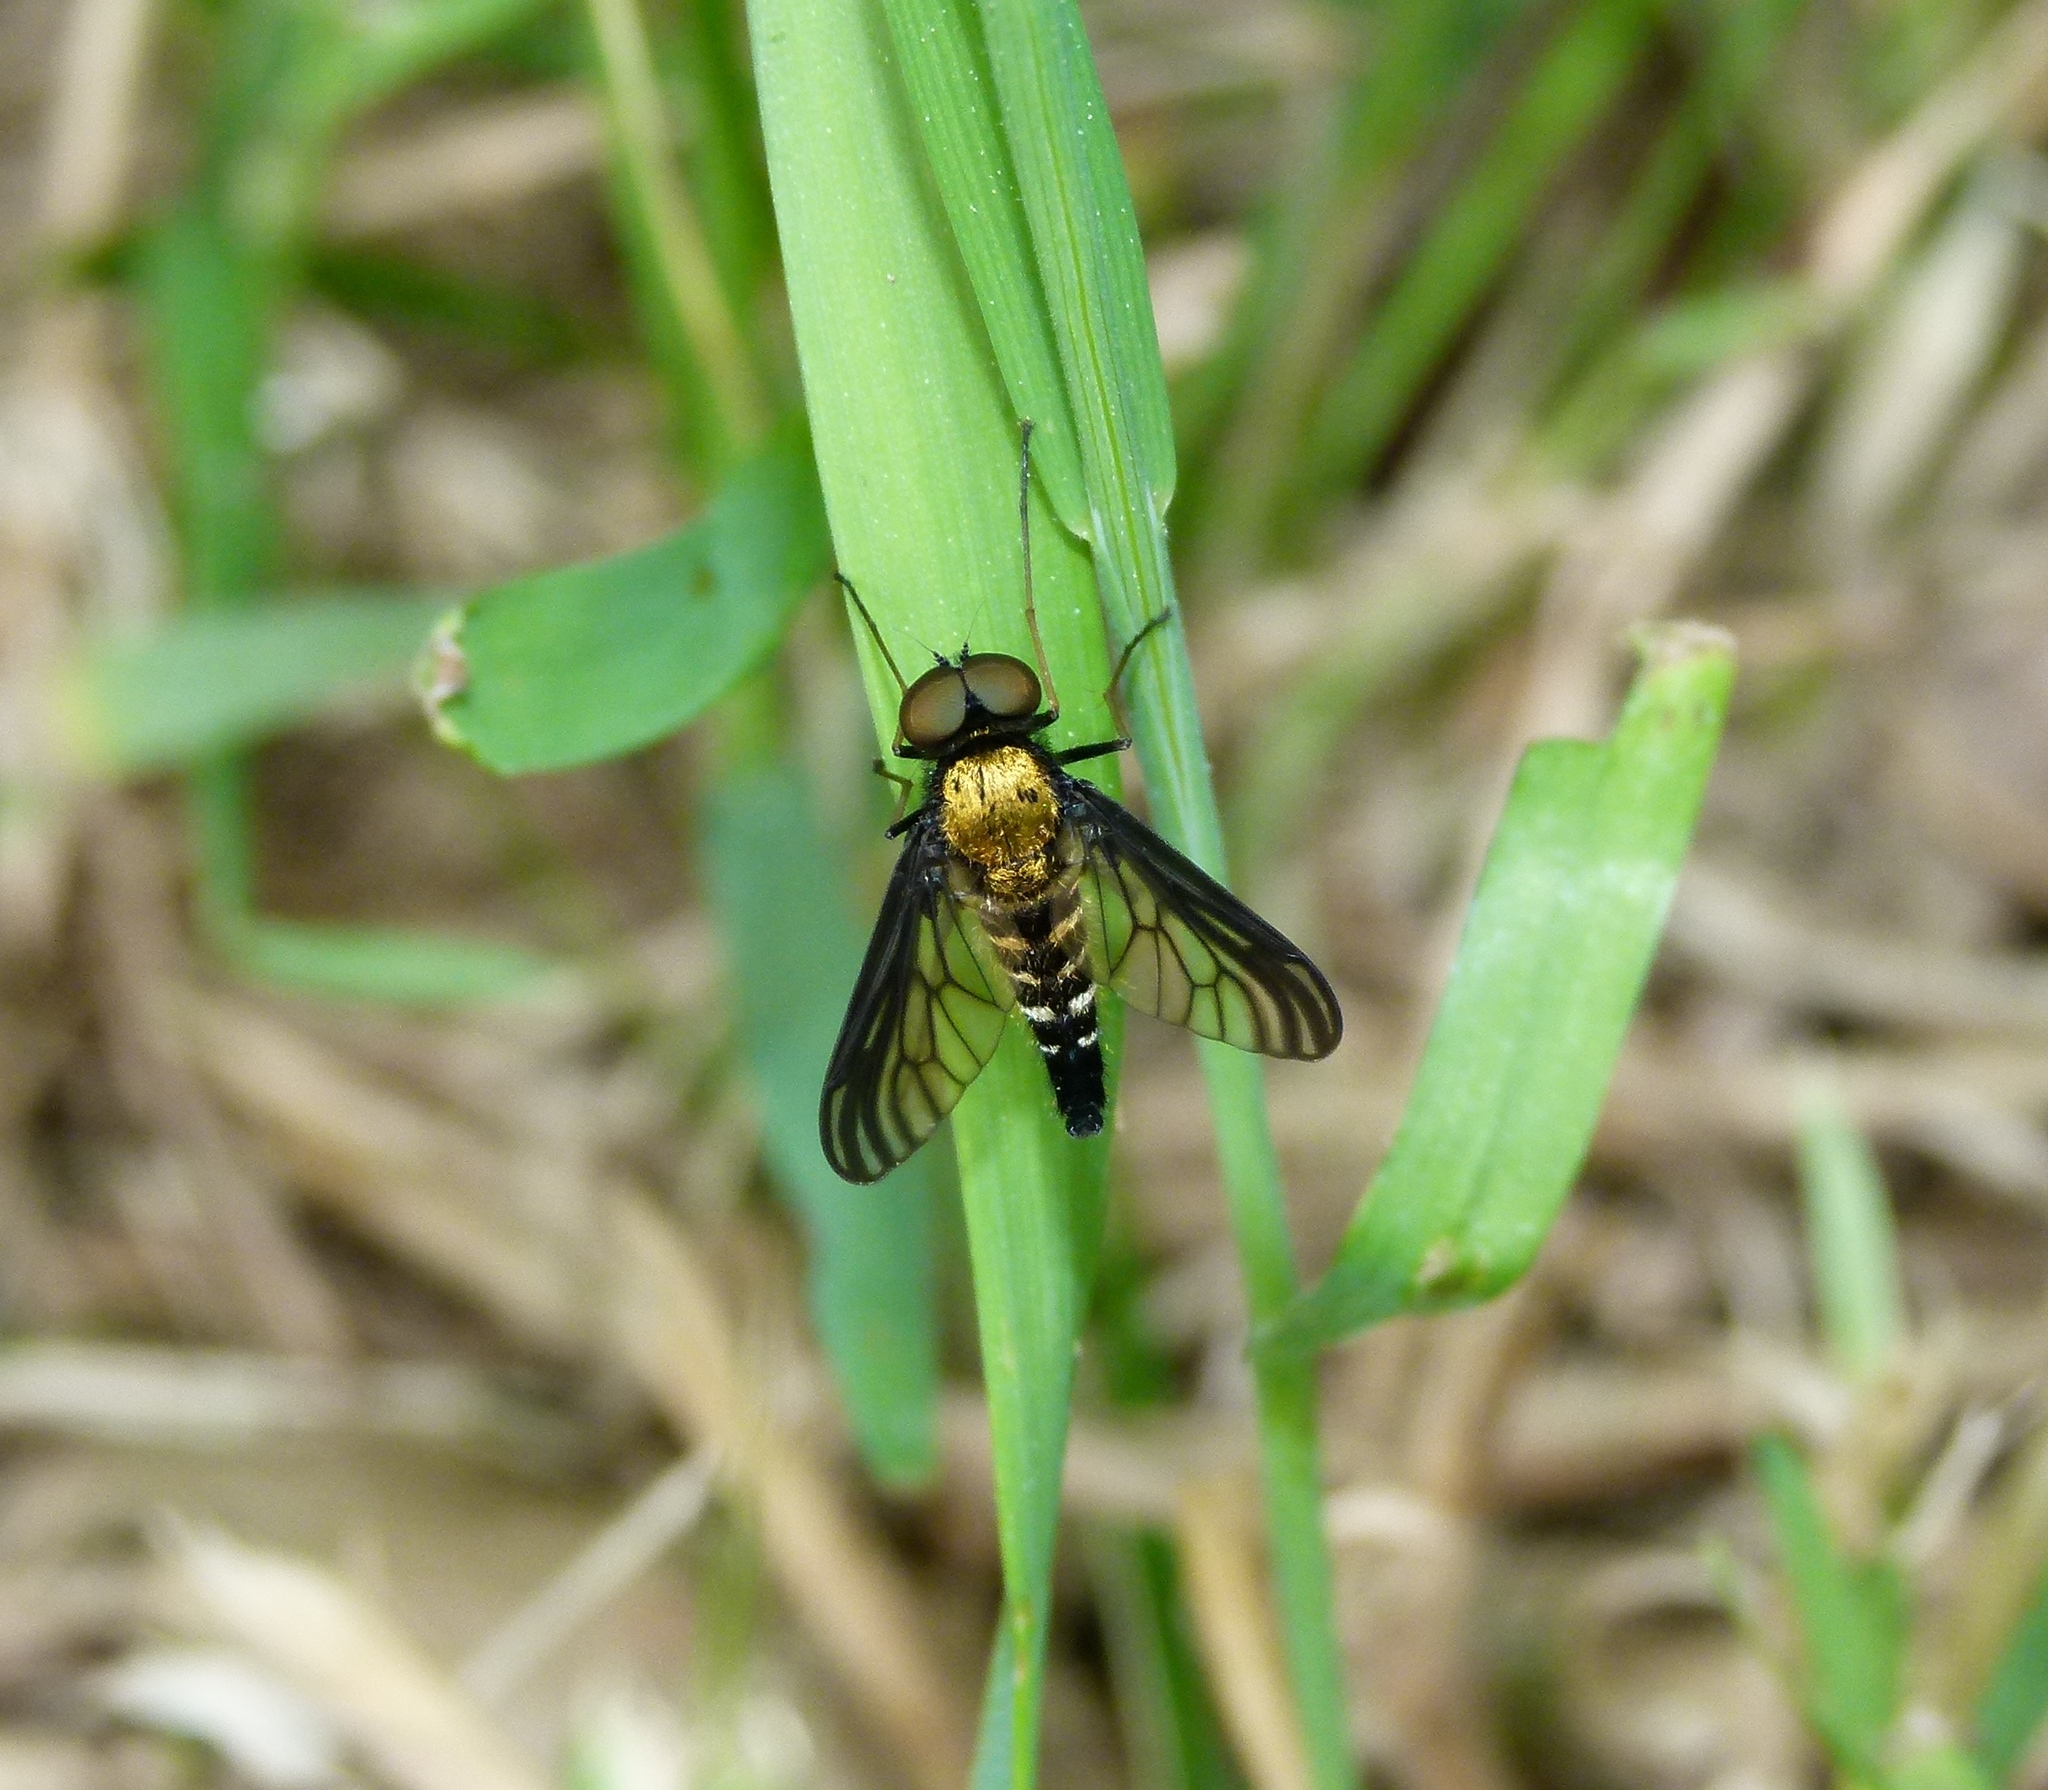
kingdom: Animalia
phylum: Arthropoda
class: Insecta
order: Diptera
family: Rhagionidae
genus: Chrysopilus
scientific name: Chrysopilus thoracicus
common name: Golden-backed snipe fly
